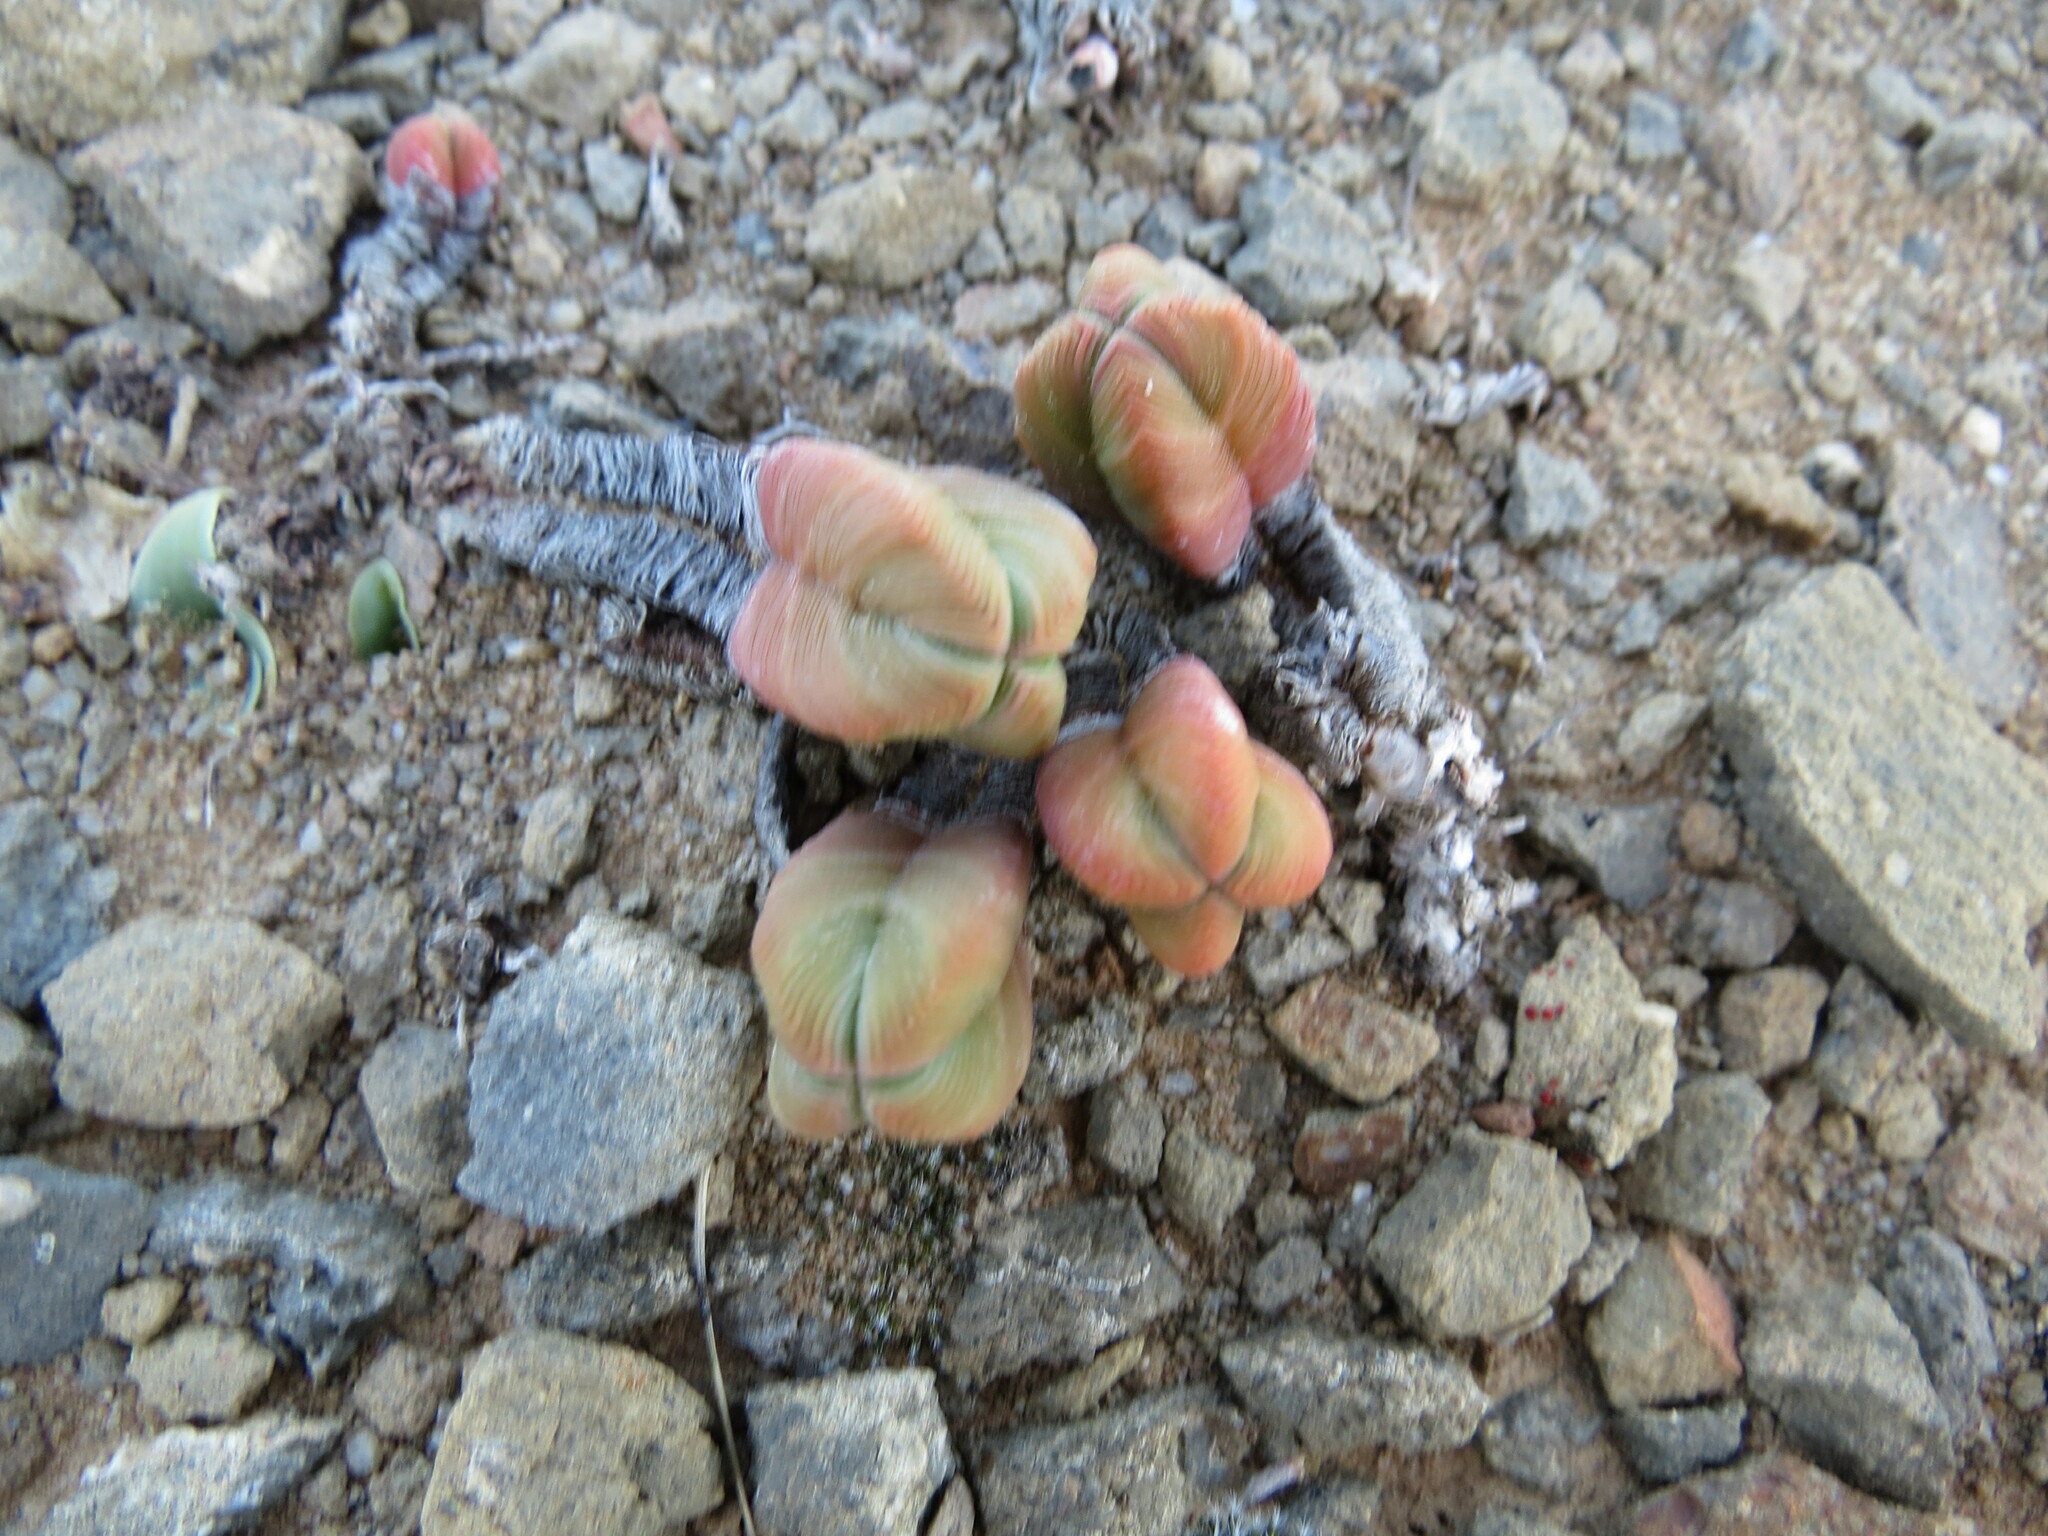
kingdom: Plantae
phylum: Tracheophyta
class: Magnoliopsida
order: Saxifragales
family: Crassulaceae
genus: Crassula
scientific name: Crassula pyramidalis
